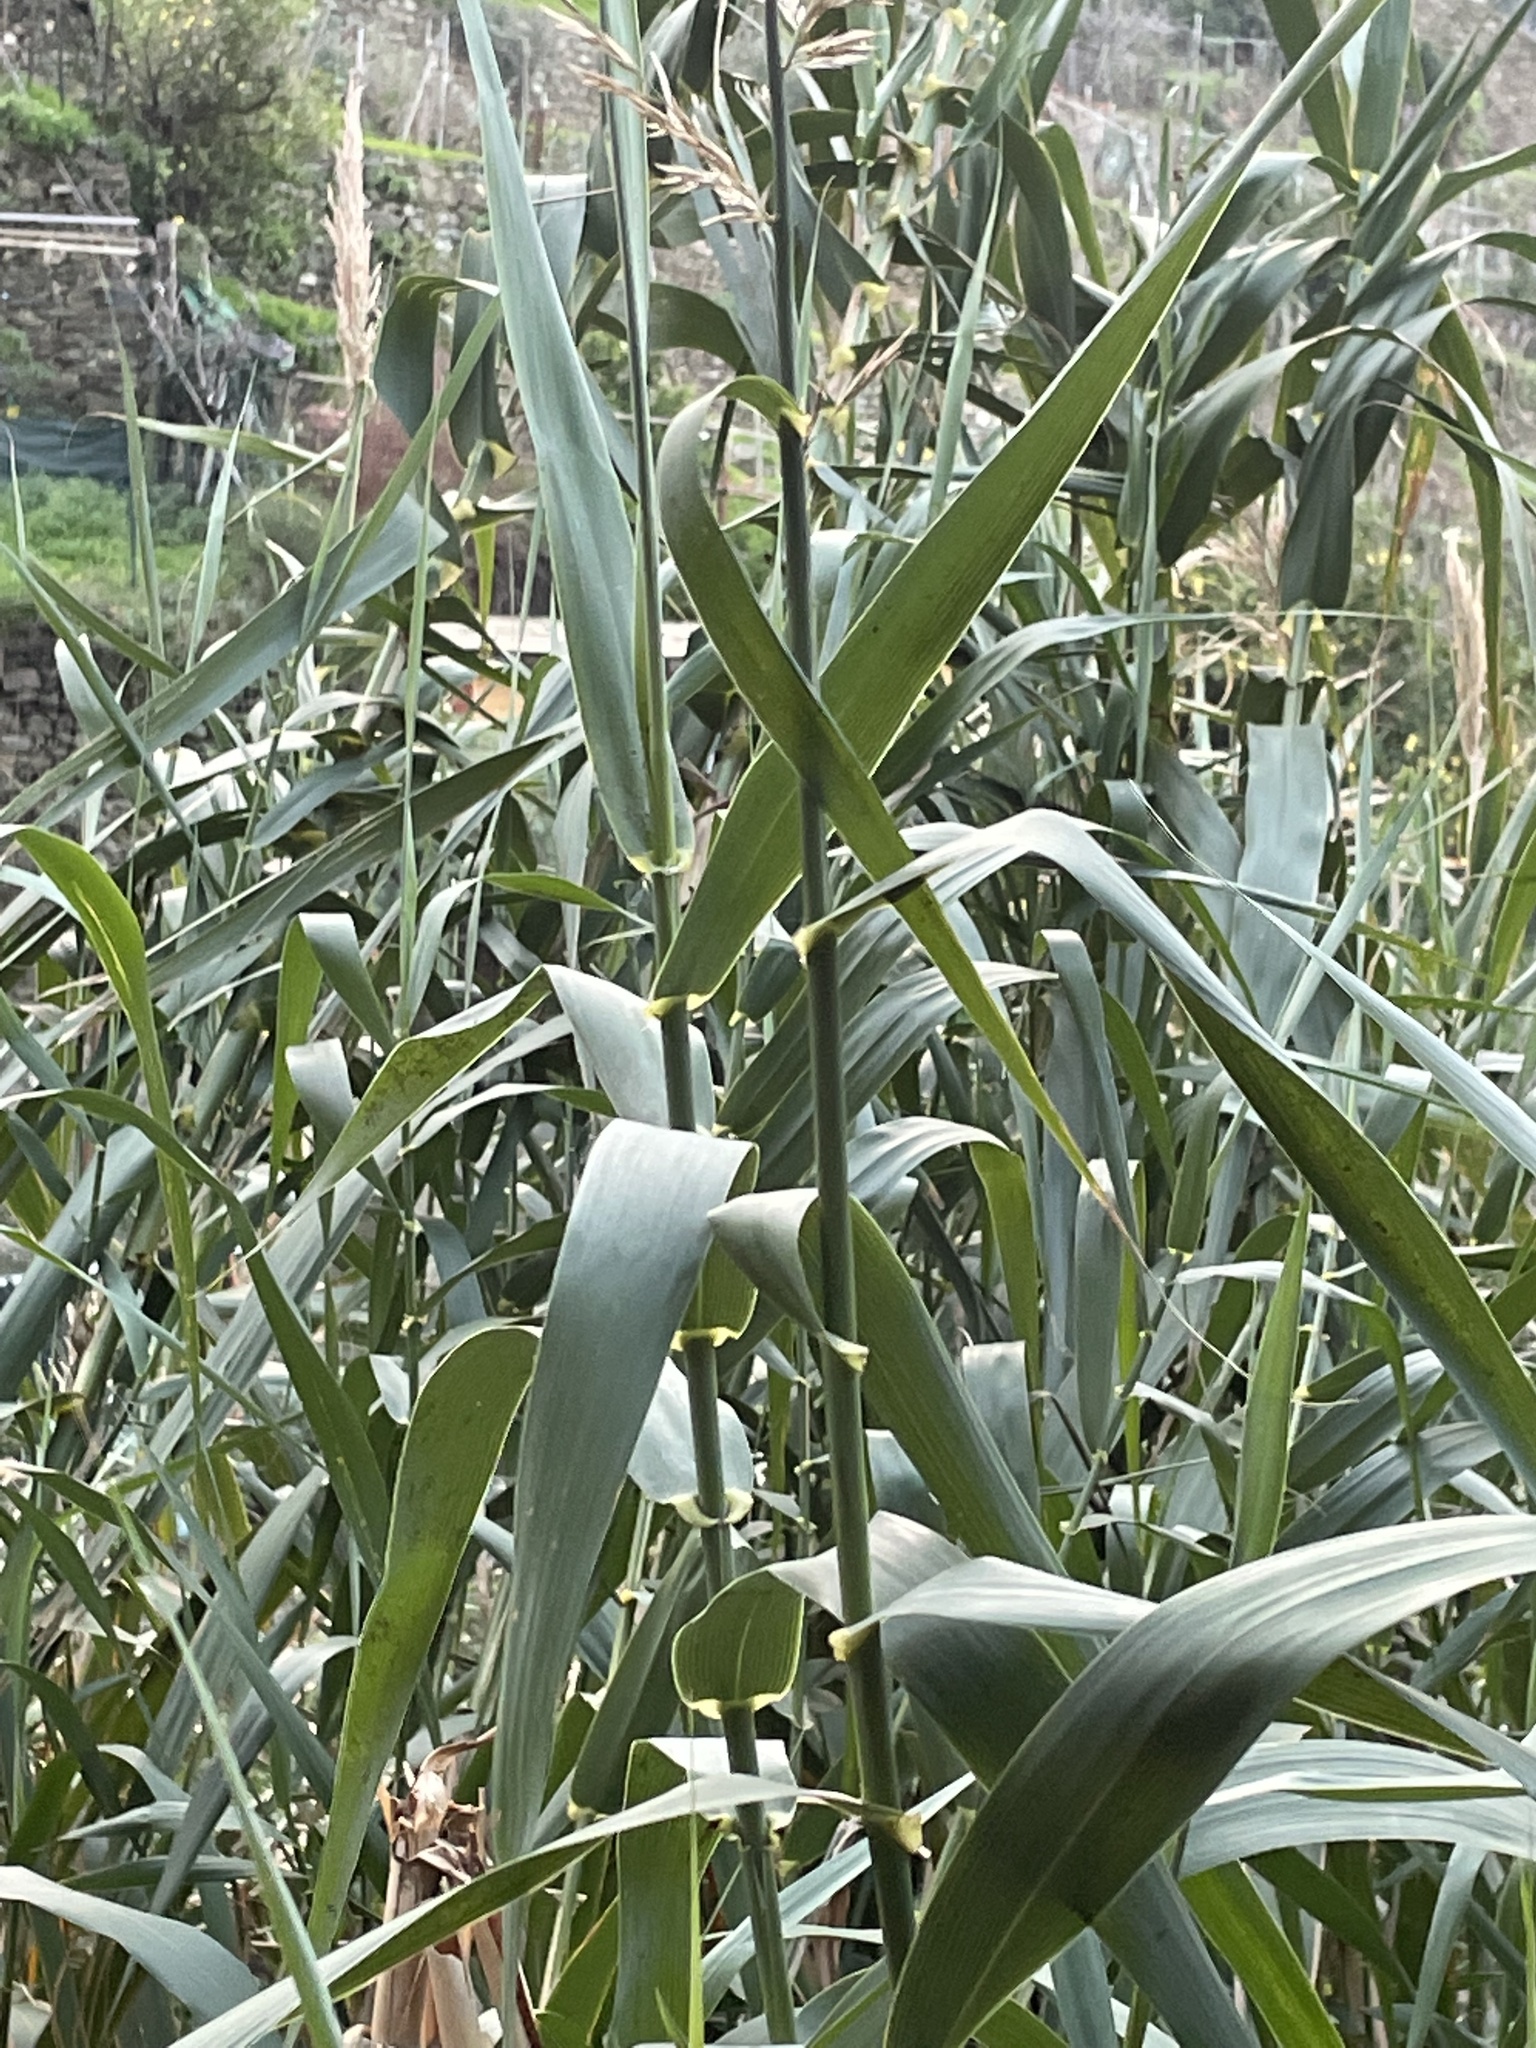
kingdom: Plantae
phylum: Tracheophyta
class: Liliopsida
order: Poales
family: Poaceae
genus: Arundo
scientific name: Arundo donax
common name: Giant reed
